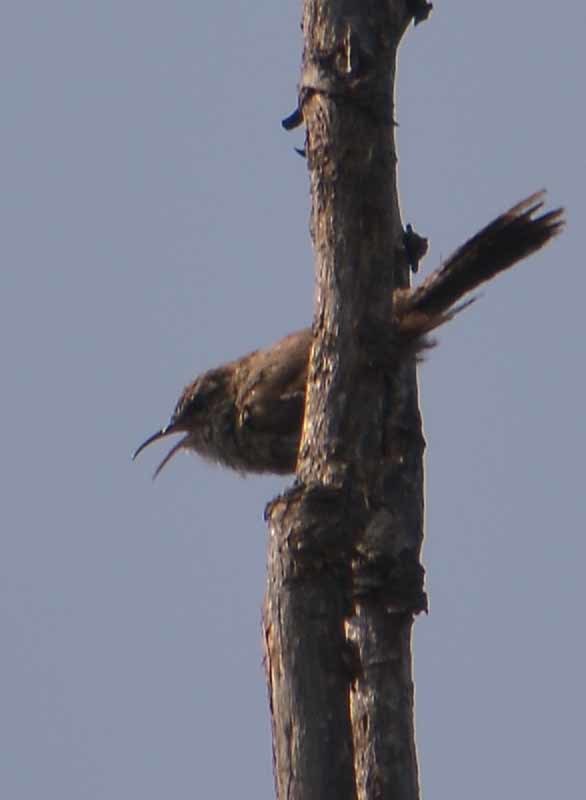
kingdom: Animalia
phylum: Chordata
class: Aves
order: Passeriformes
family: Troglodytidae
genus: Thryomanes
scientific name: Thryomanes bewickii
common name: Bewick's wren
